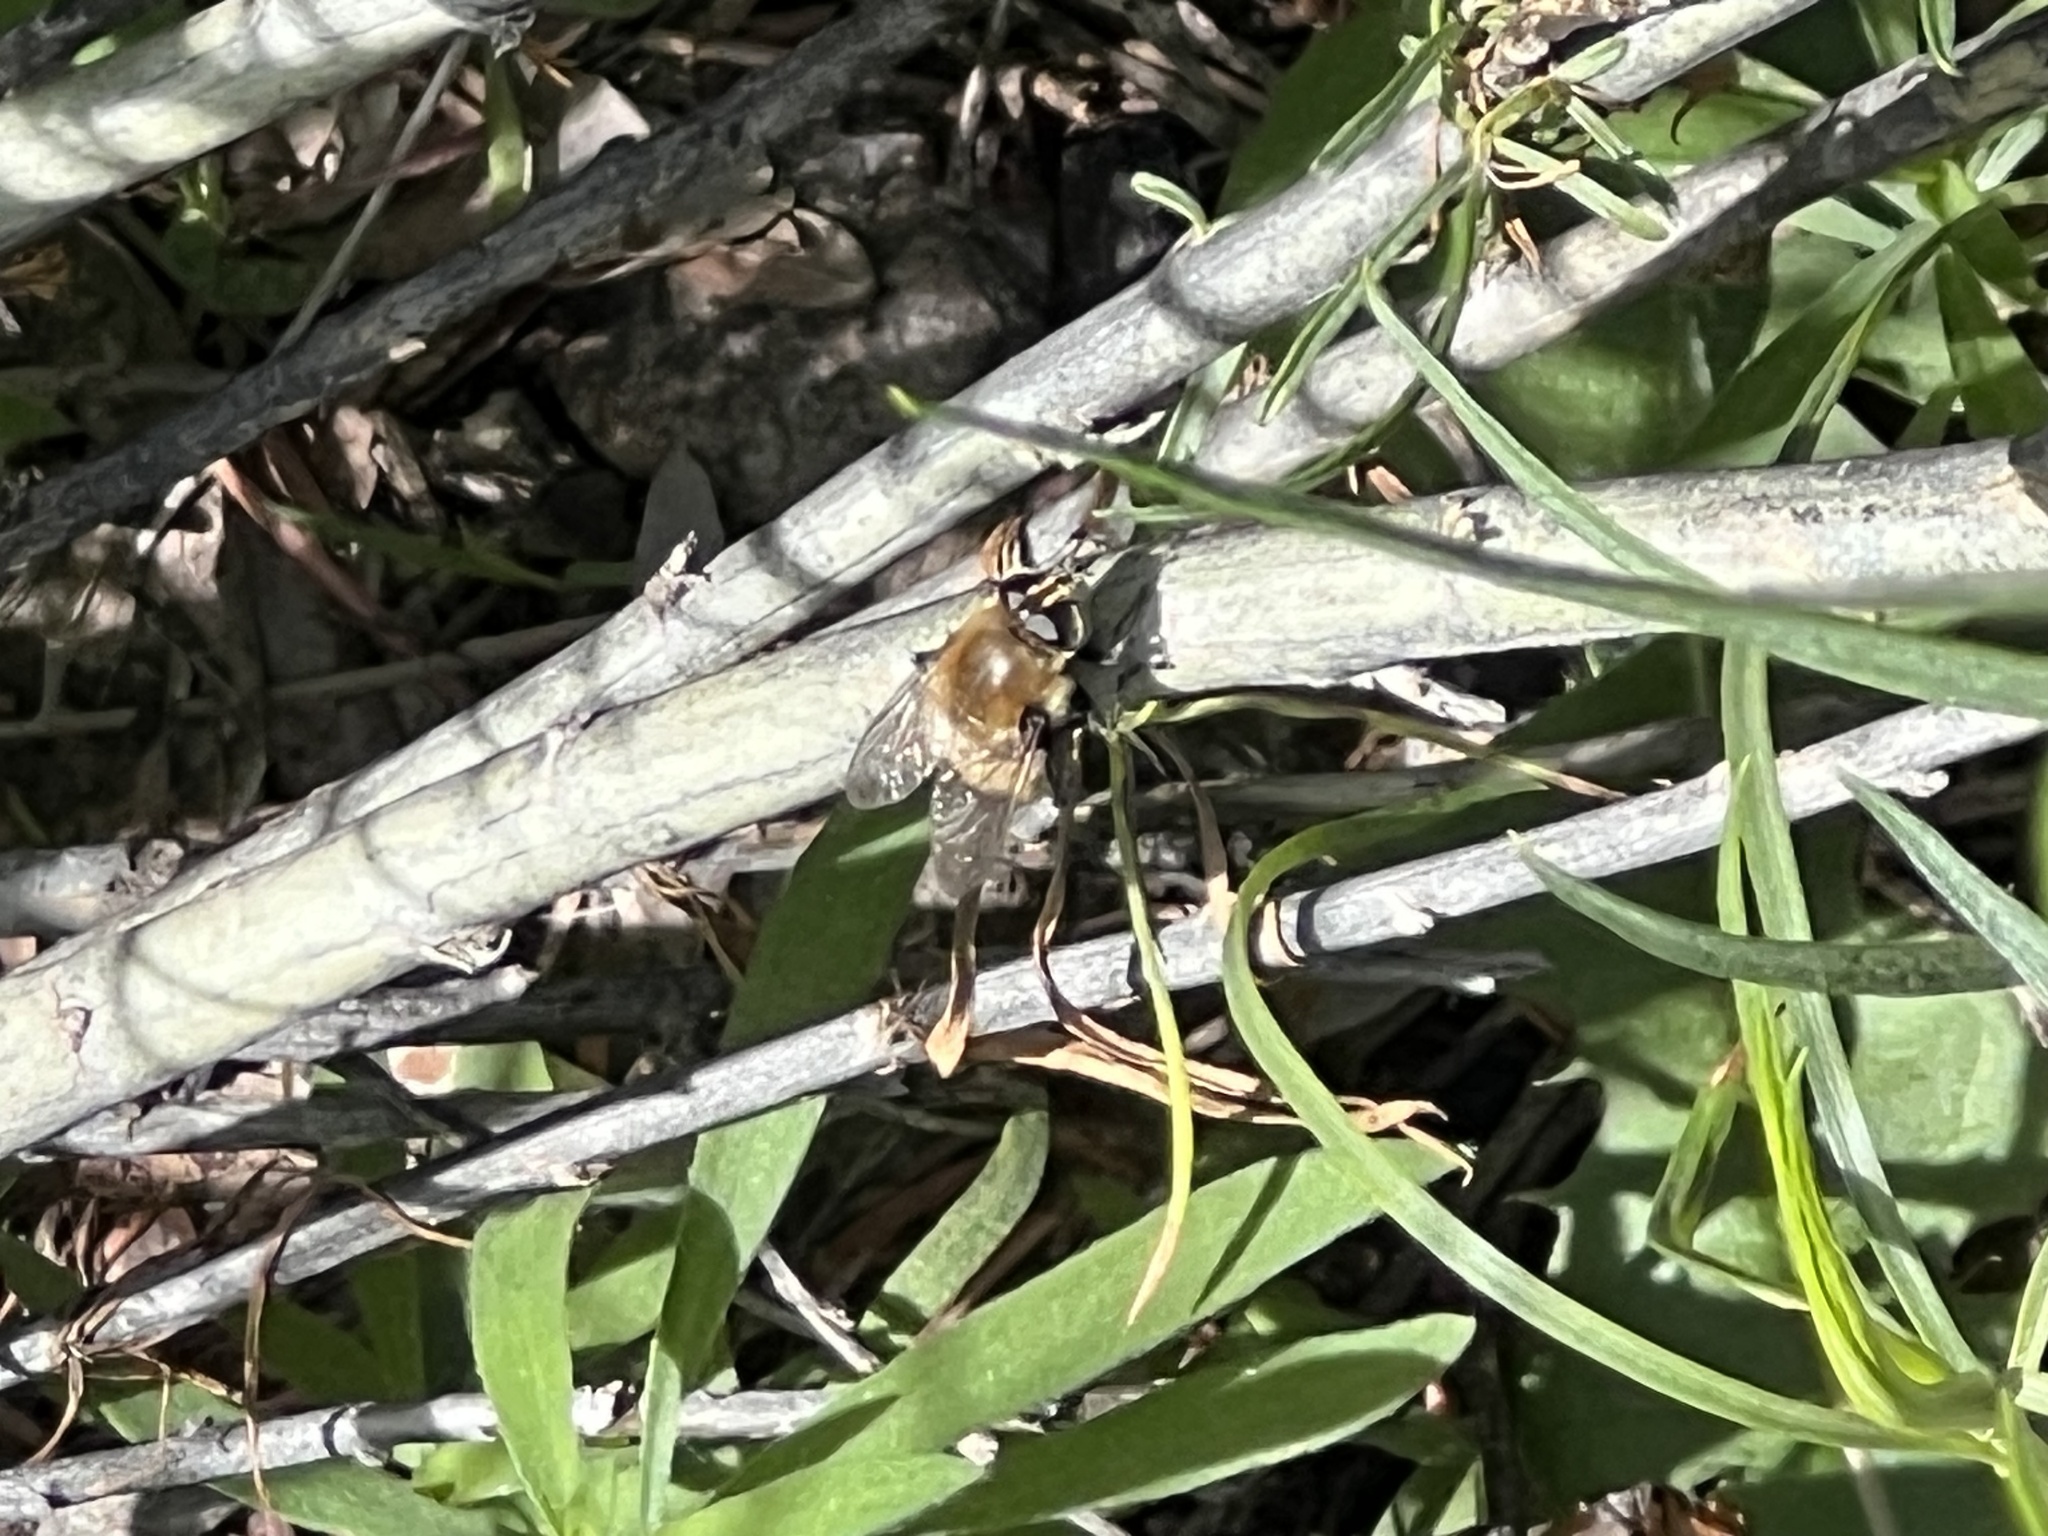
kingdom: Animalia
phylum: Arthropoda
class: Insecta
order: Diptera
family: Syrphidae
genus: Merodon
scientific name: Merodon equestris
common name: Greater bulb-fly
